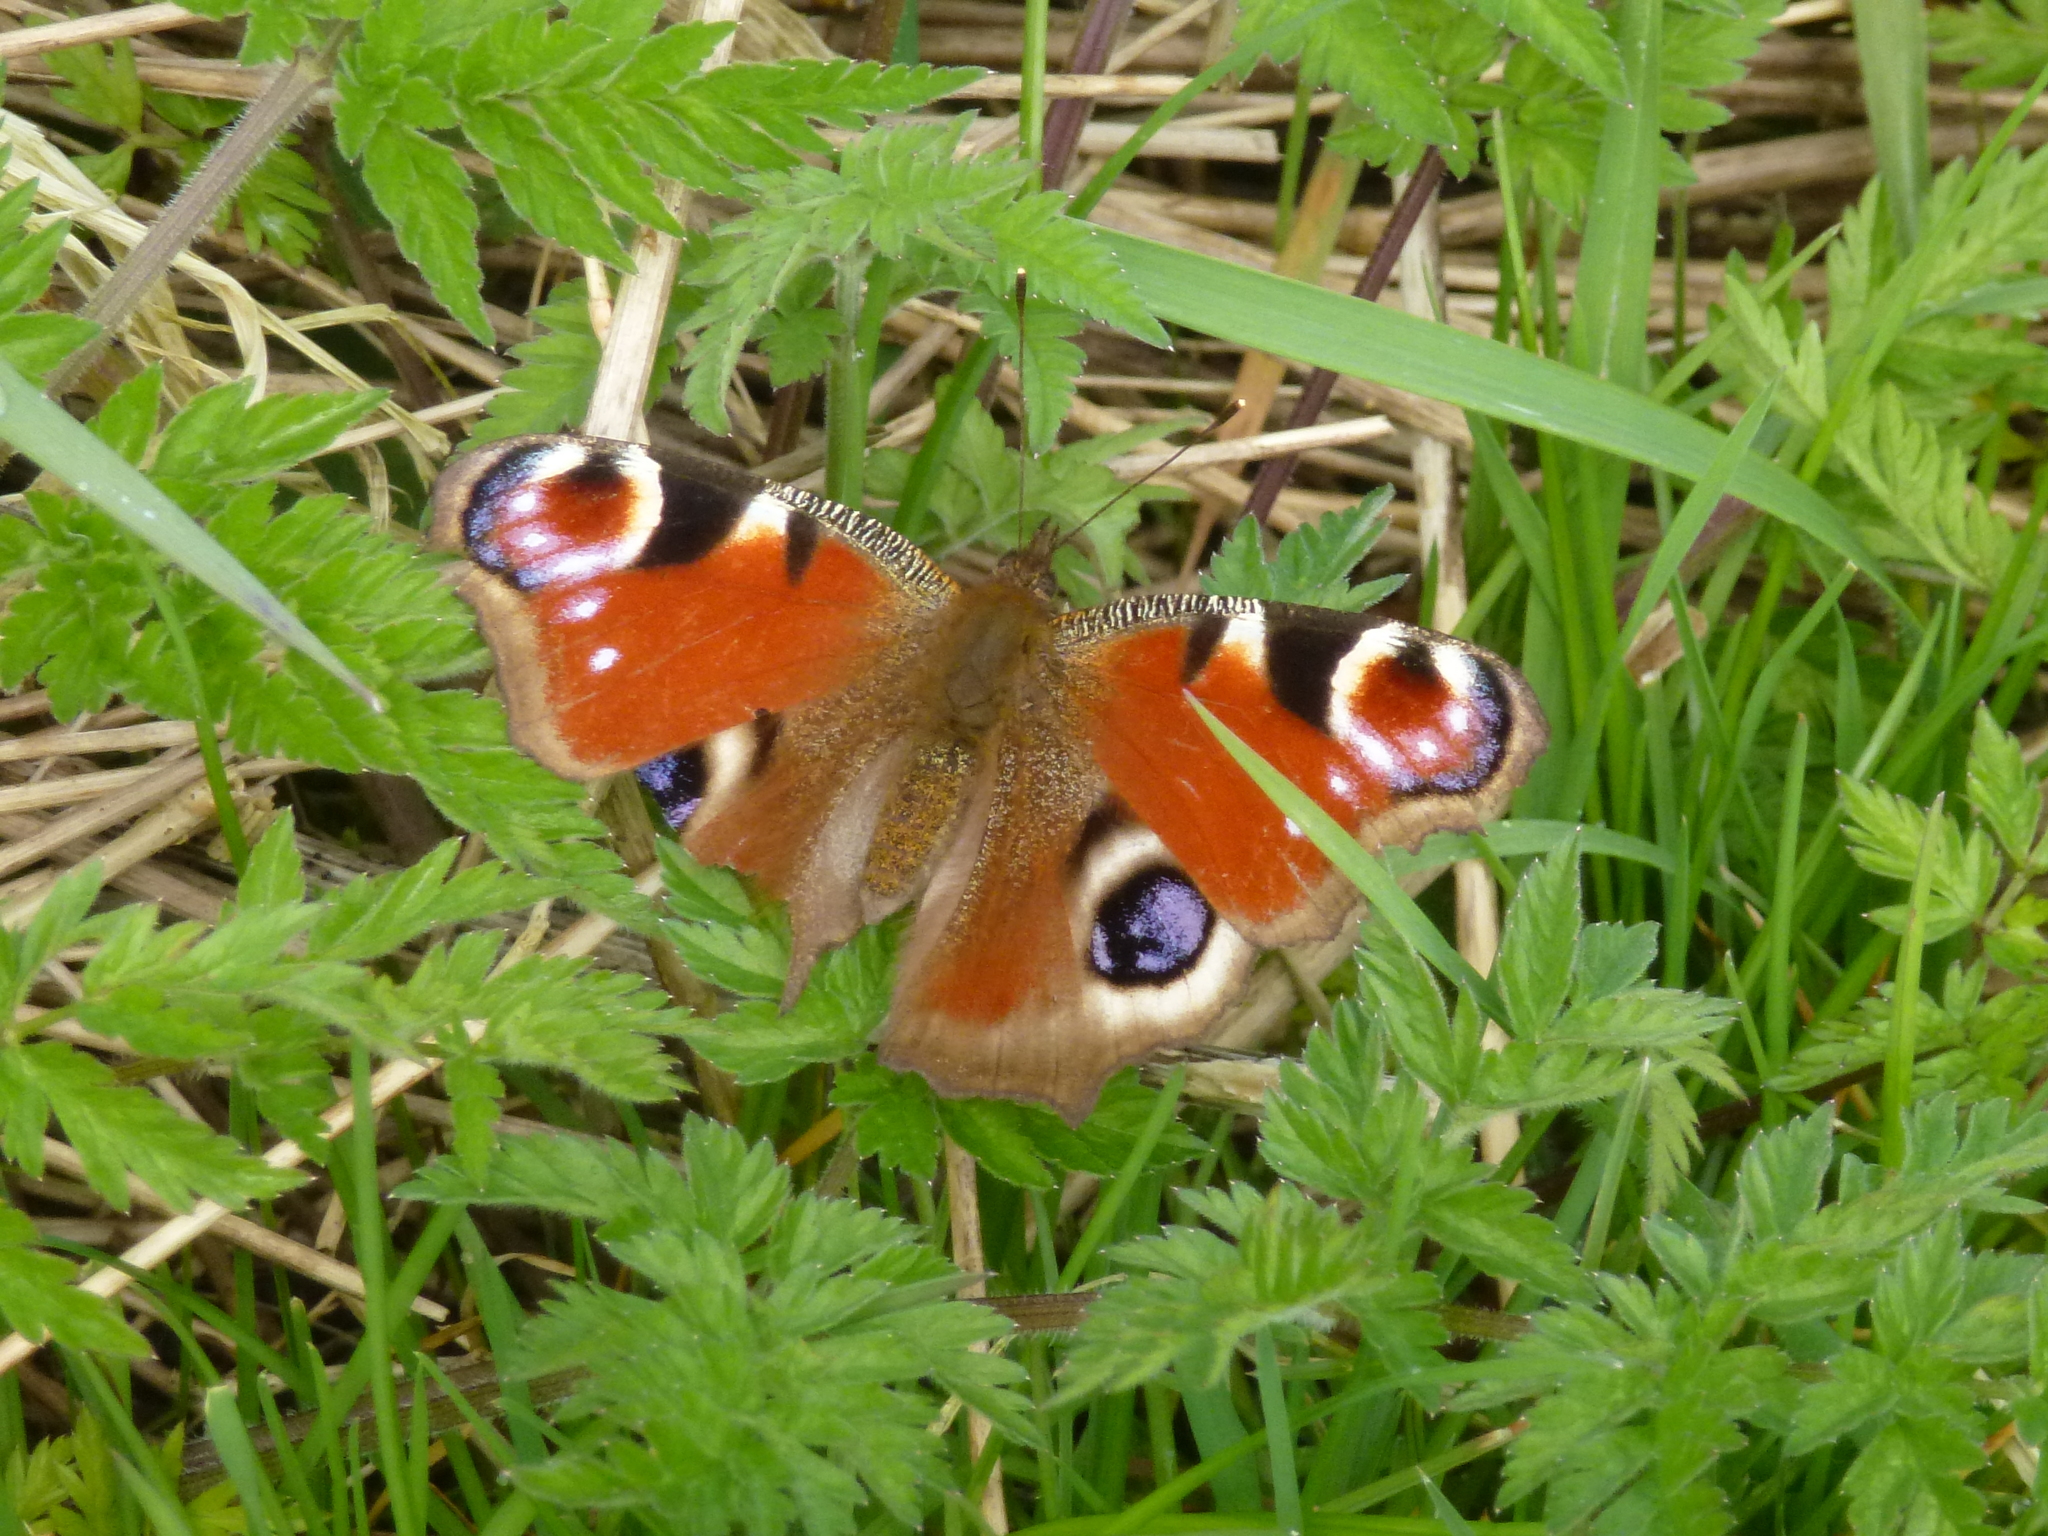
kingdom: Animalia
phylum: Arthropoda
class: Insecta
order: Lepidoptera
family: Nymphalidae
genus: Aglais
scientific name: Aglais io
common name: Peacock
